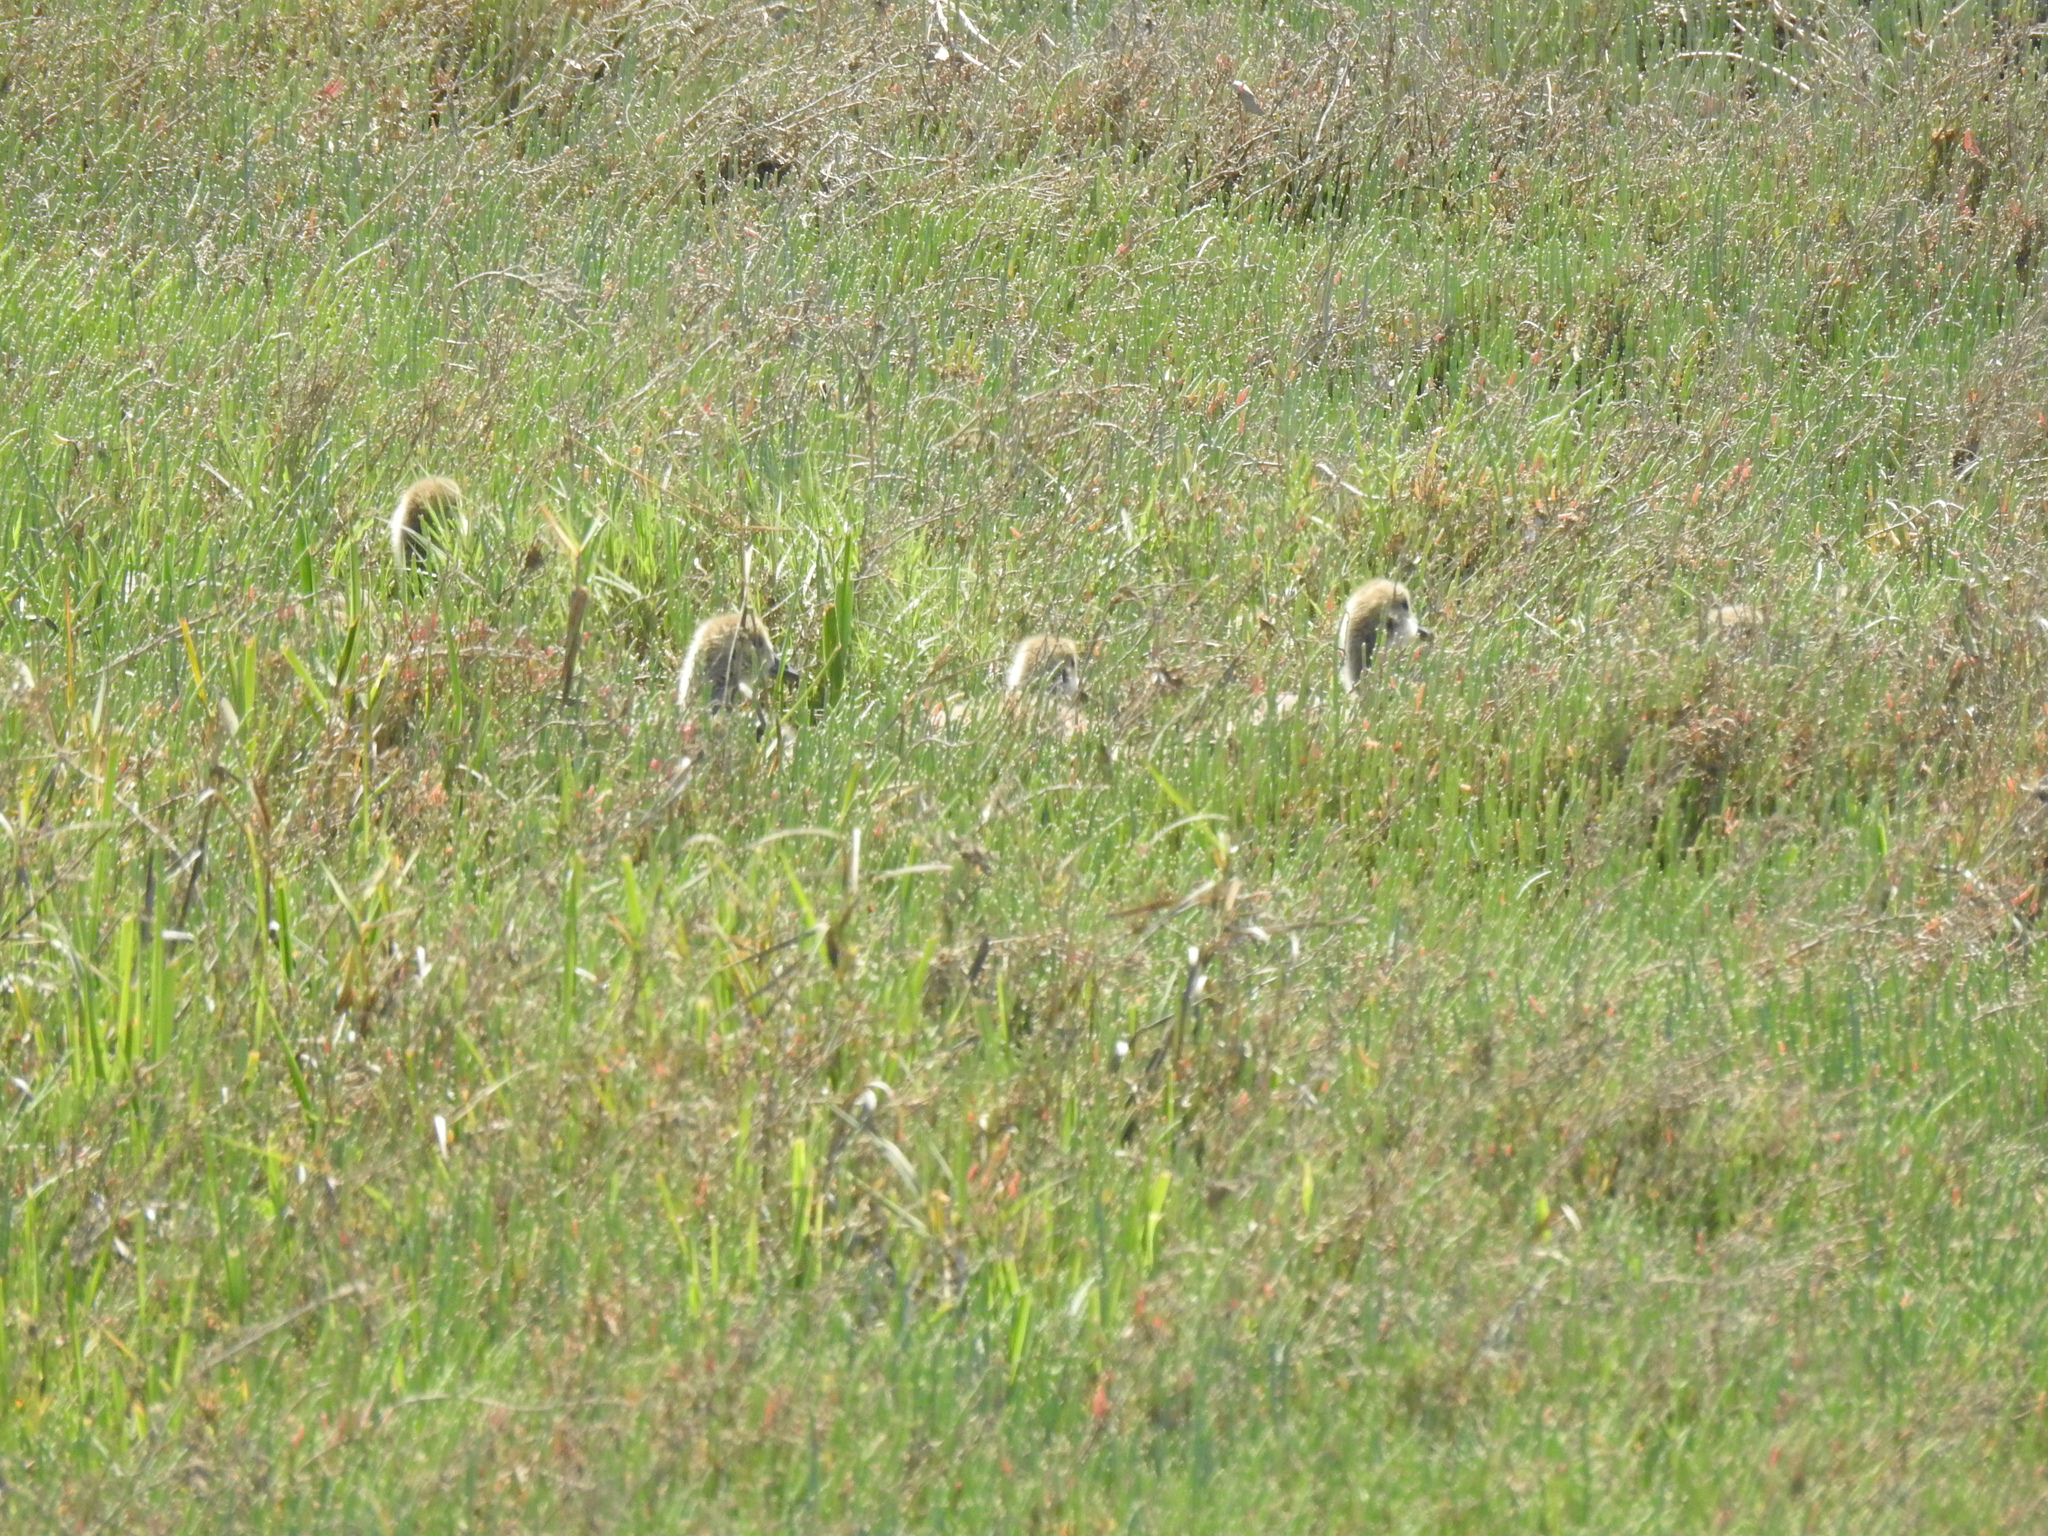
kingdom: Animalia
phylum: Chordata
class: Aves
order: Anseriformes
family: Anatidae
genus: Branta
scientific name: Branta canadensis
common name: Canada goose
